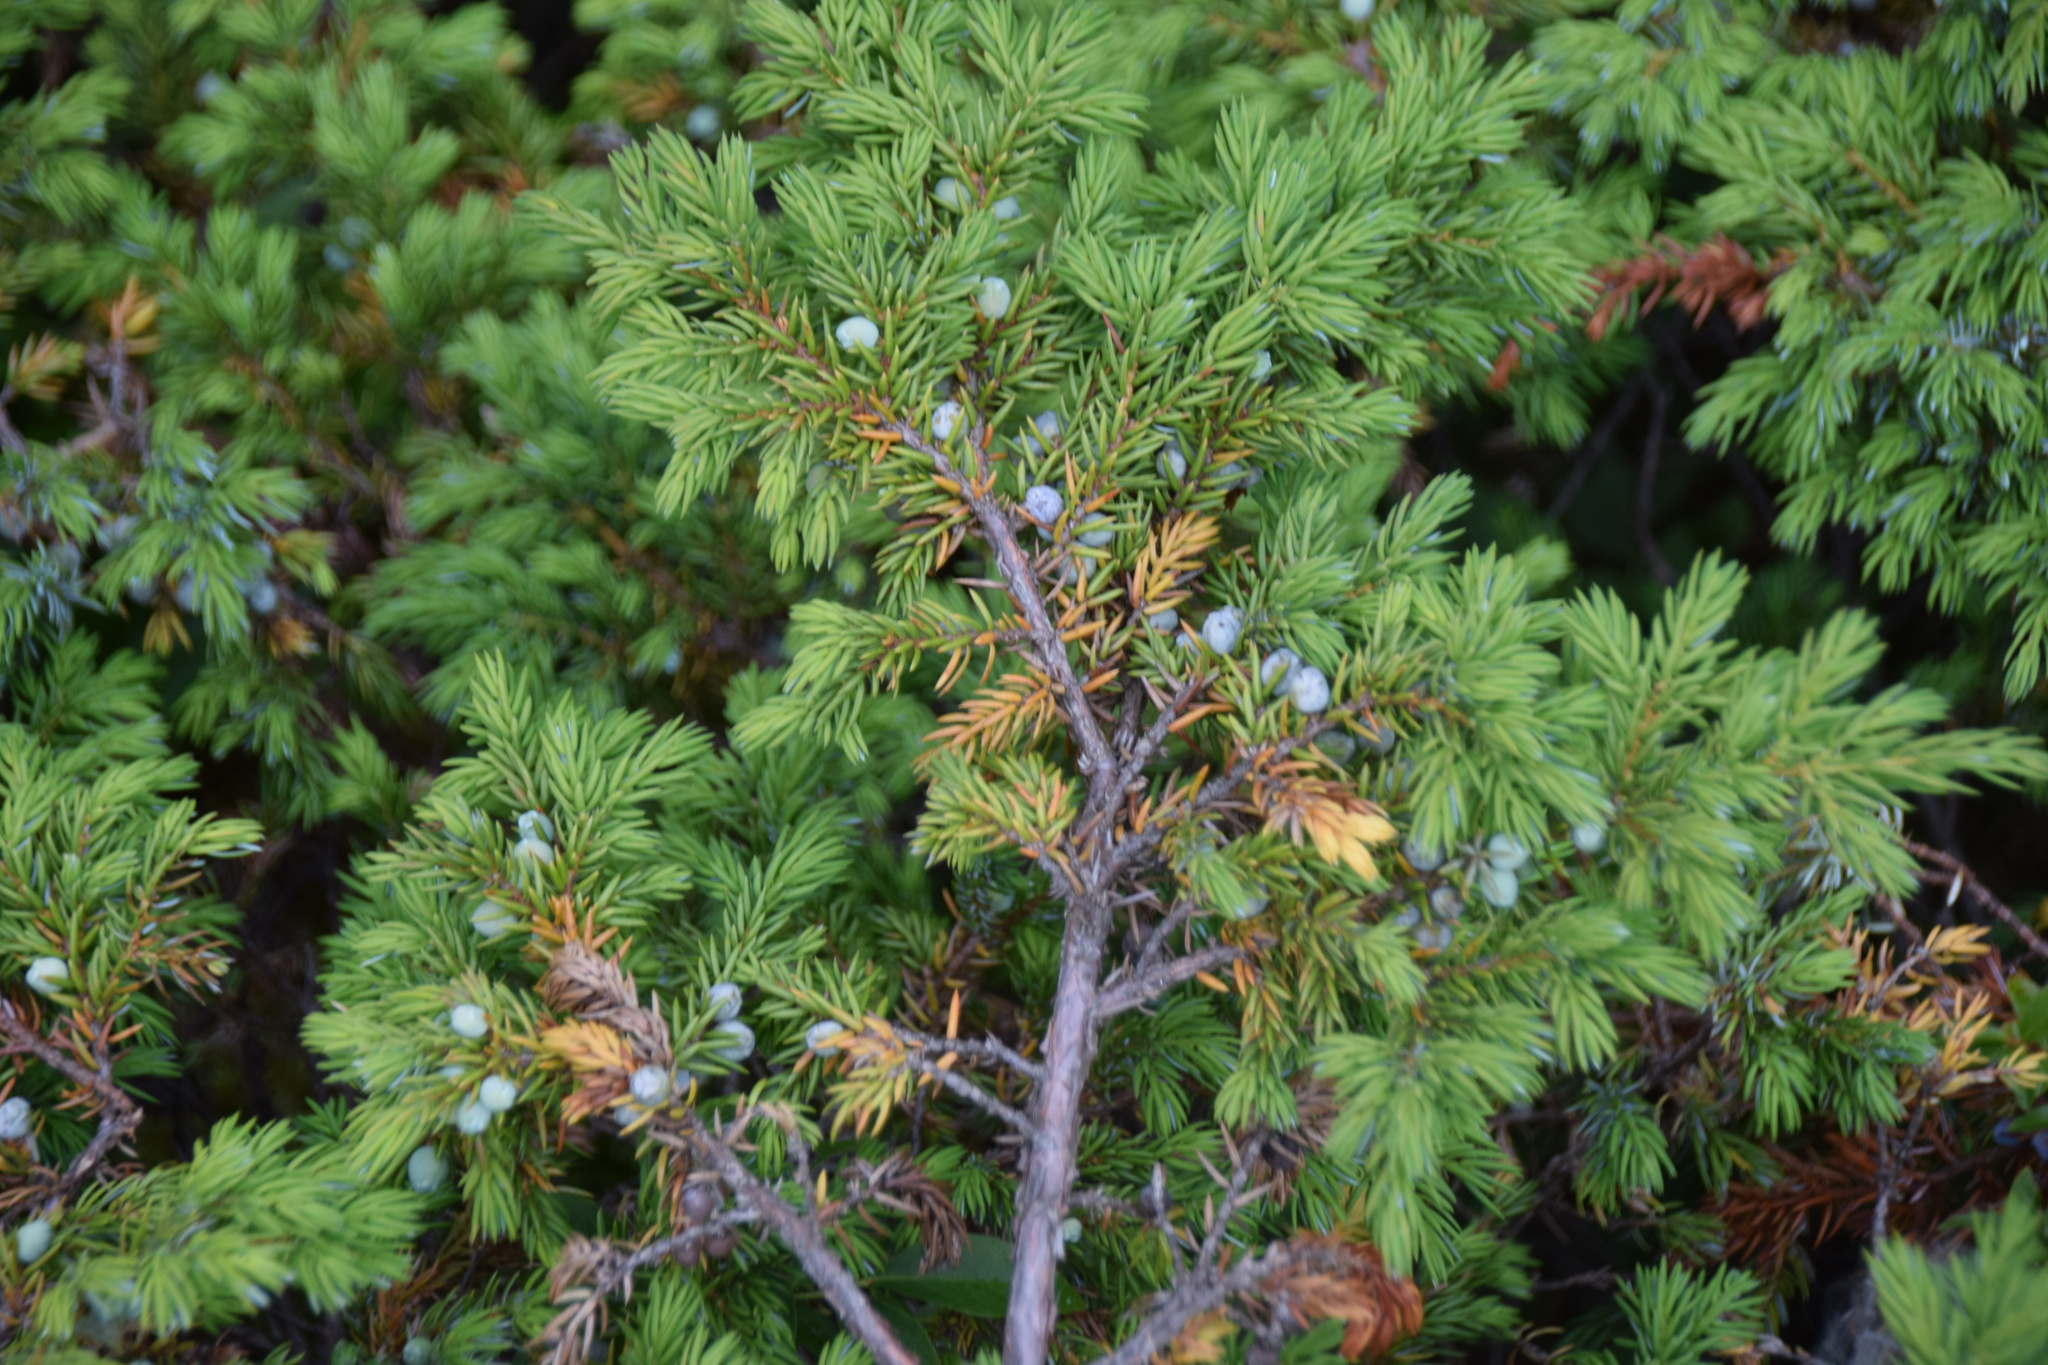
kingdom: Plantae
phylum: Tracheophyta
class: Pinopsida
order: Pinales
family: Cupressaceae
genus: Juniperus
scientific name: Juniperus communis
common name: Common juniper
